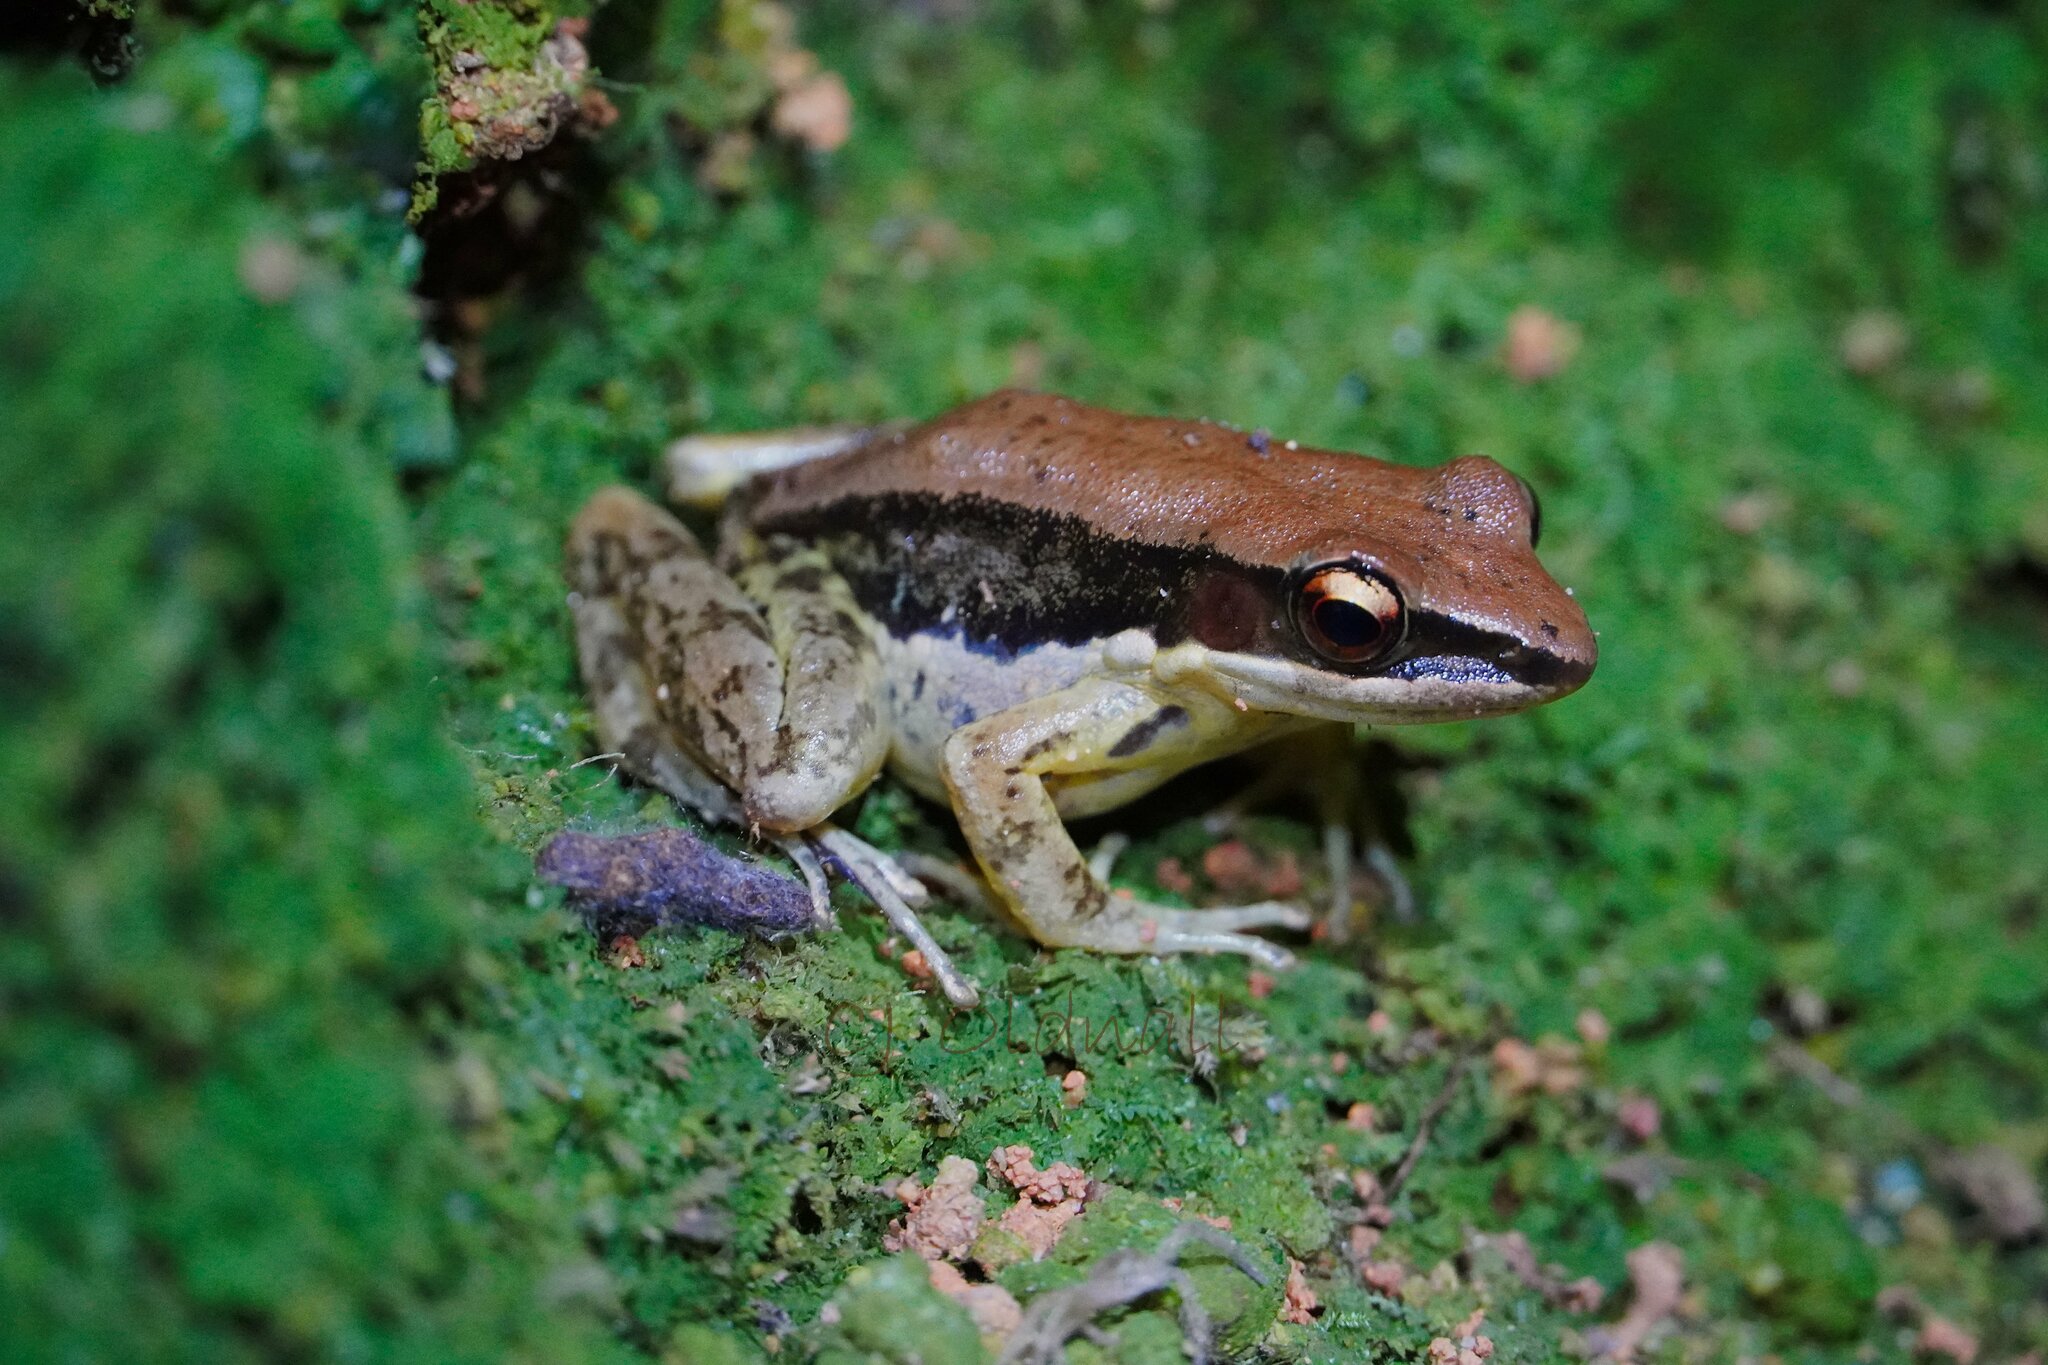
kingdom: Animalia
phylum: Chordata
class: Amphibia
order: Anura
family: Ranidae
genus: Sylvirana
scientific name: Sylvirana malayana
